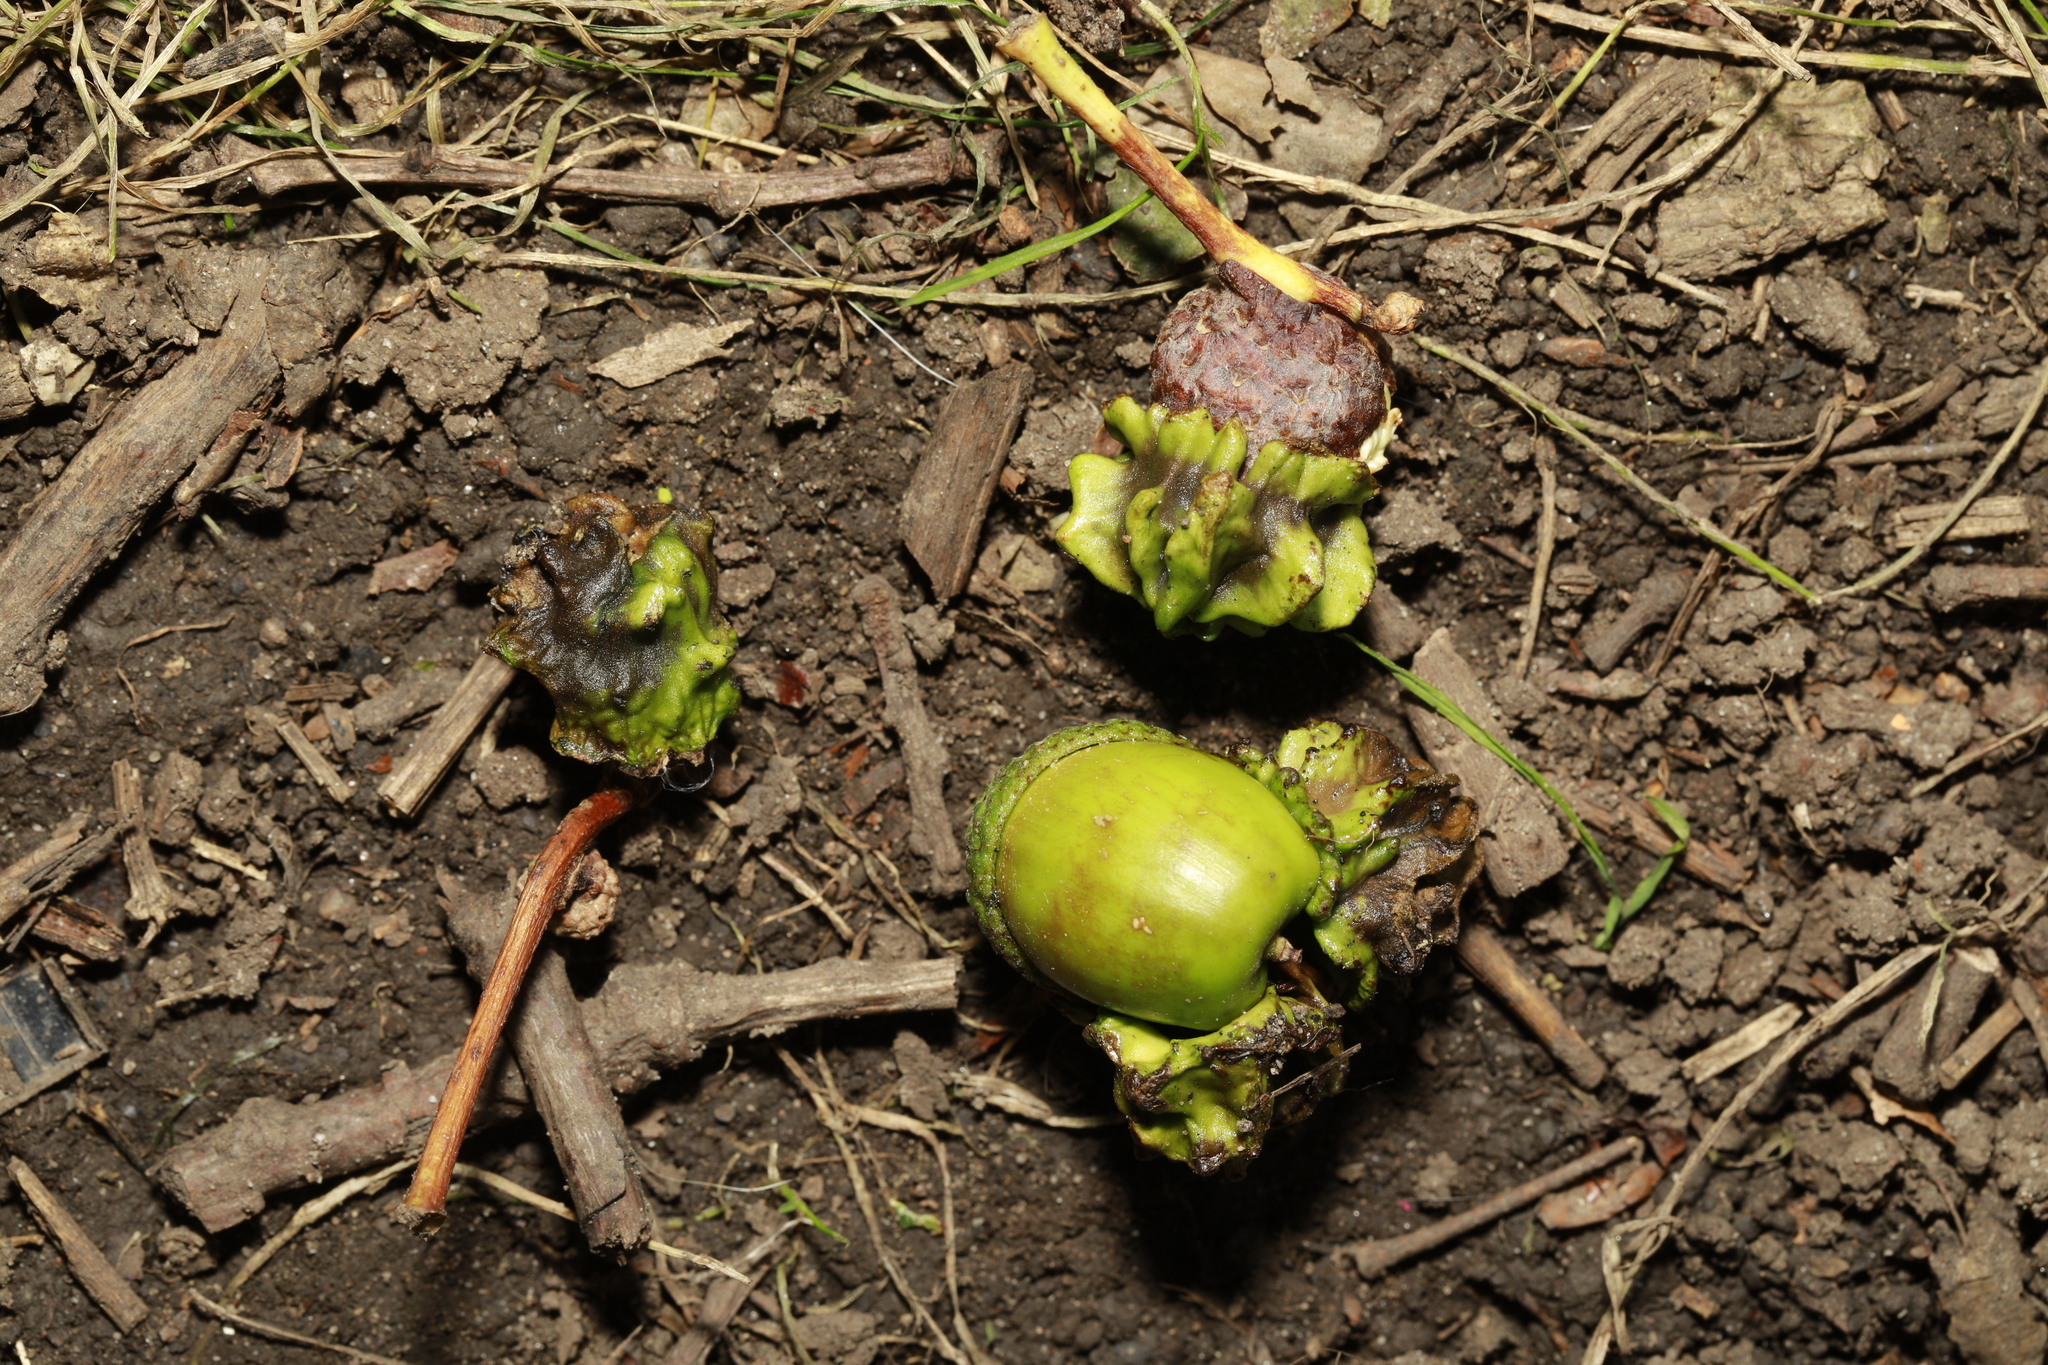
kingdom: Animalia
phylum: Arthropoda
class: Insecta
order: Hymenoptera
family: Cynipidae
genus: Andricus
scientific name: Andricus quercuscalicis
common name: Knopper gall
